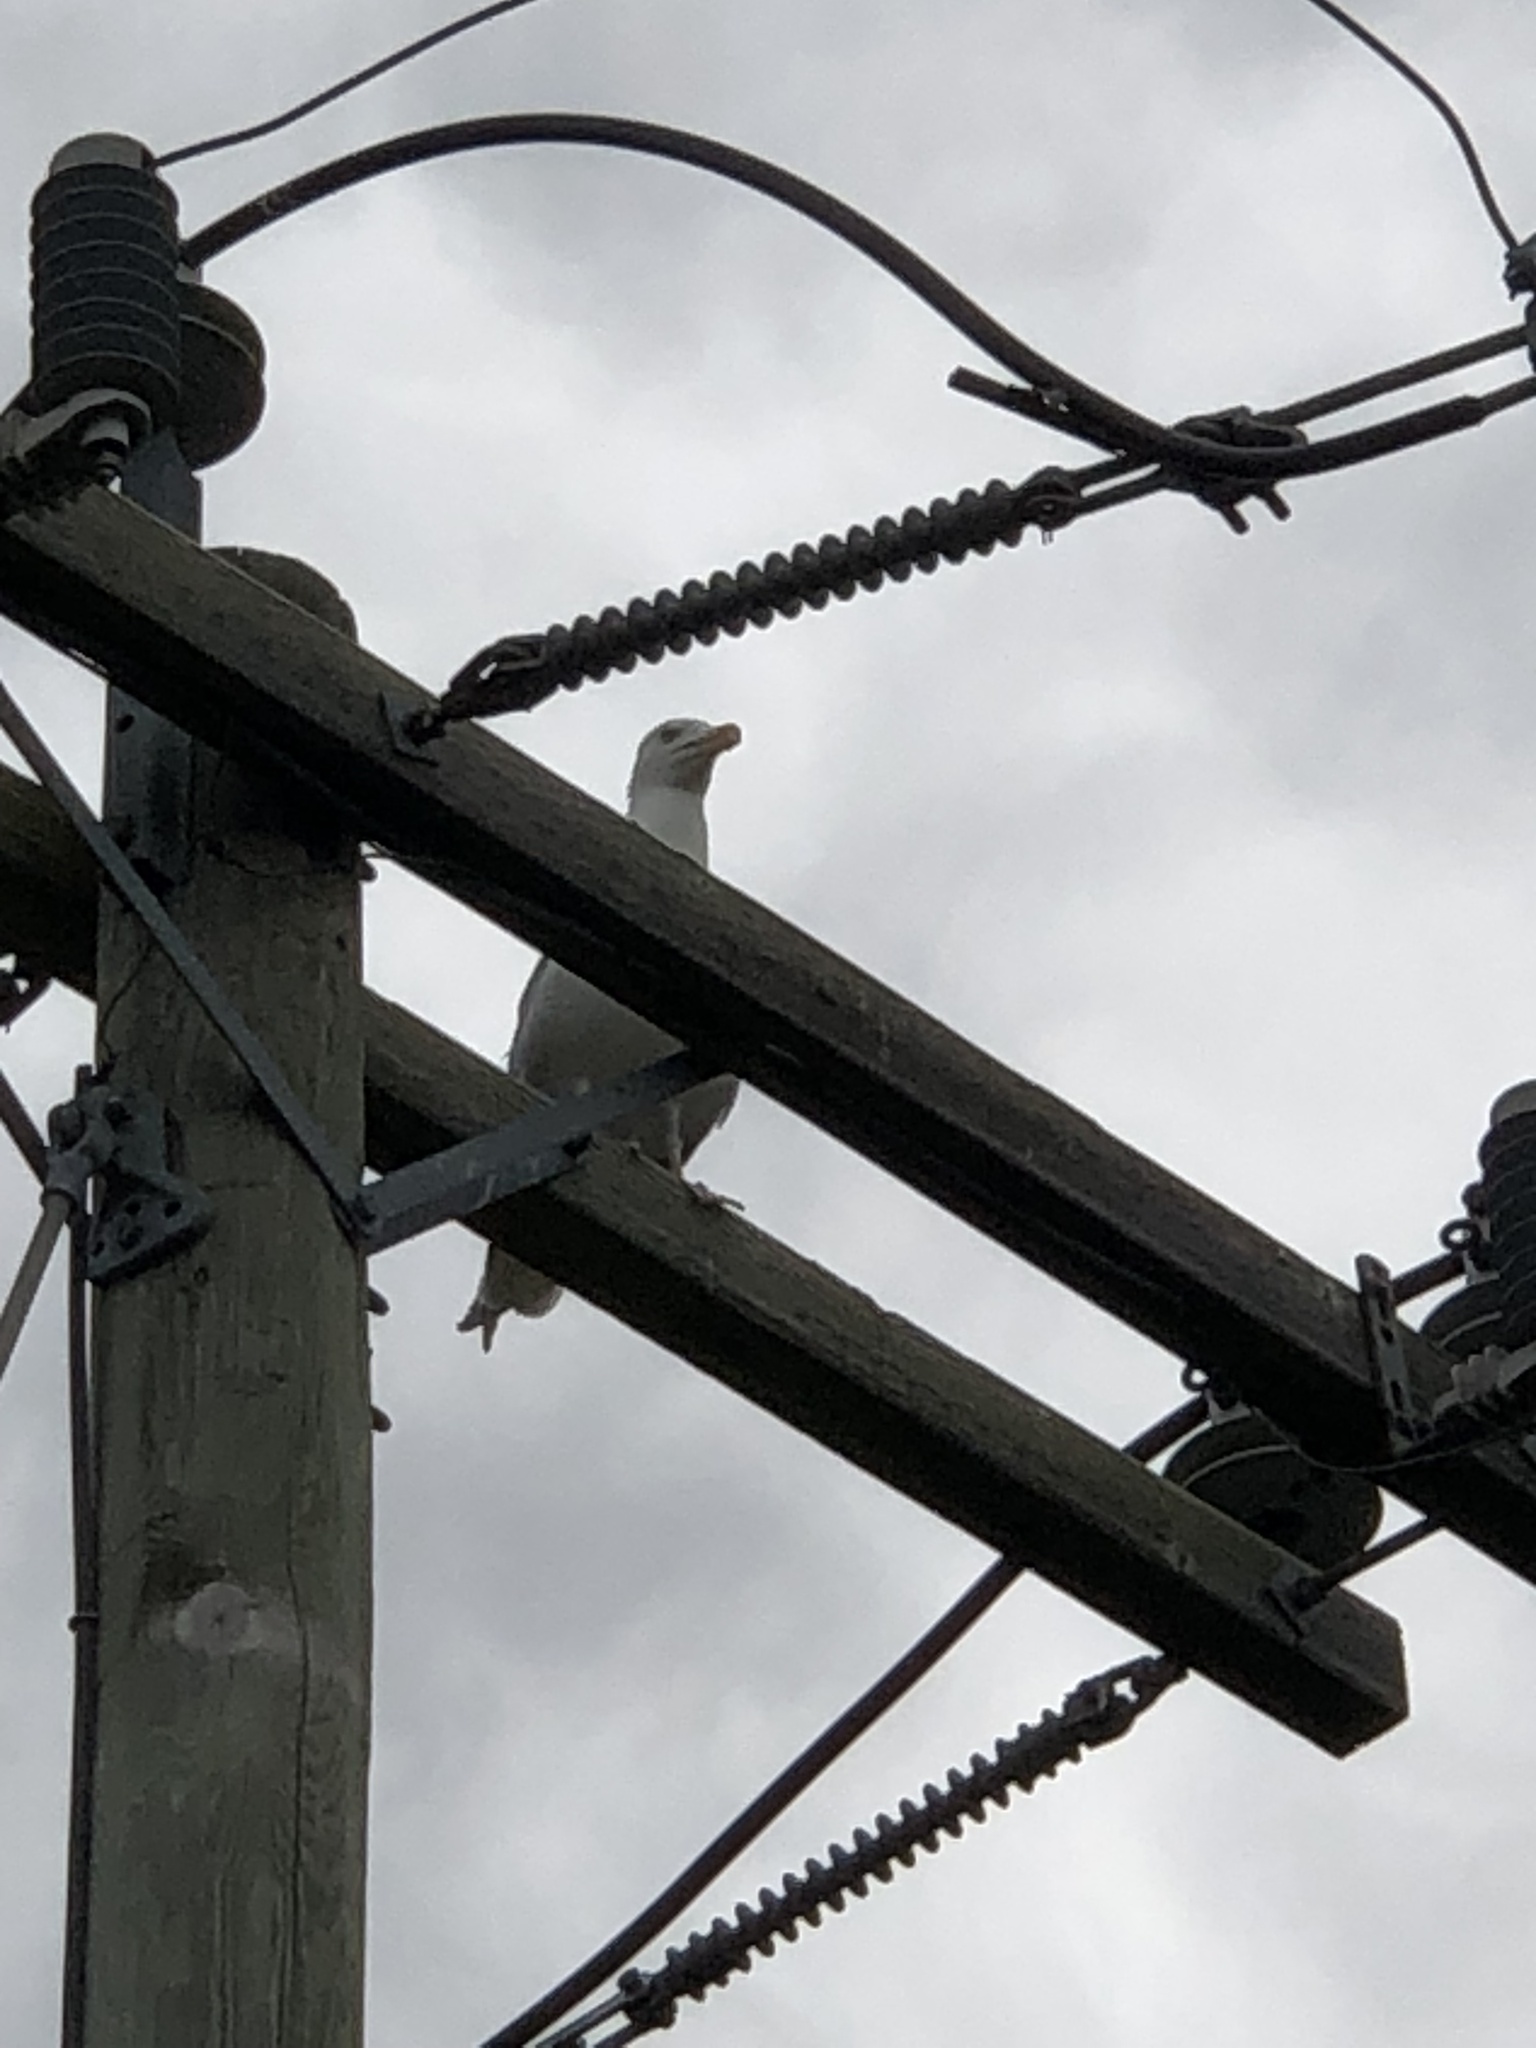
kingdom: Animalia
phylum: Chordata
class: Aves
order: Charadriiformes
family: Laridae
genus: Larus
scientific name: Larus argentatus
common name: Herring gull
